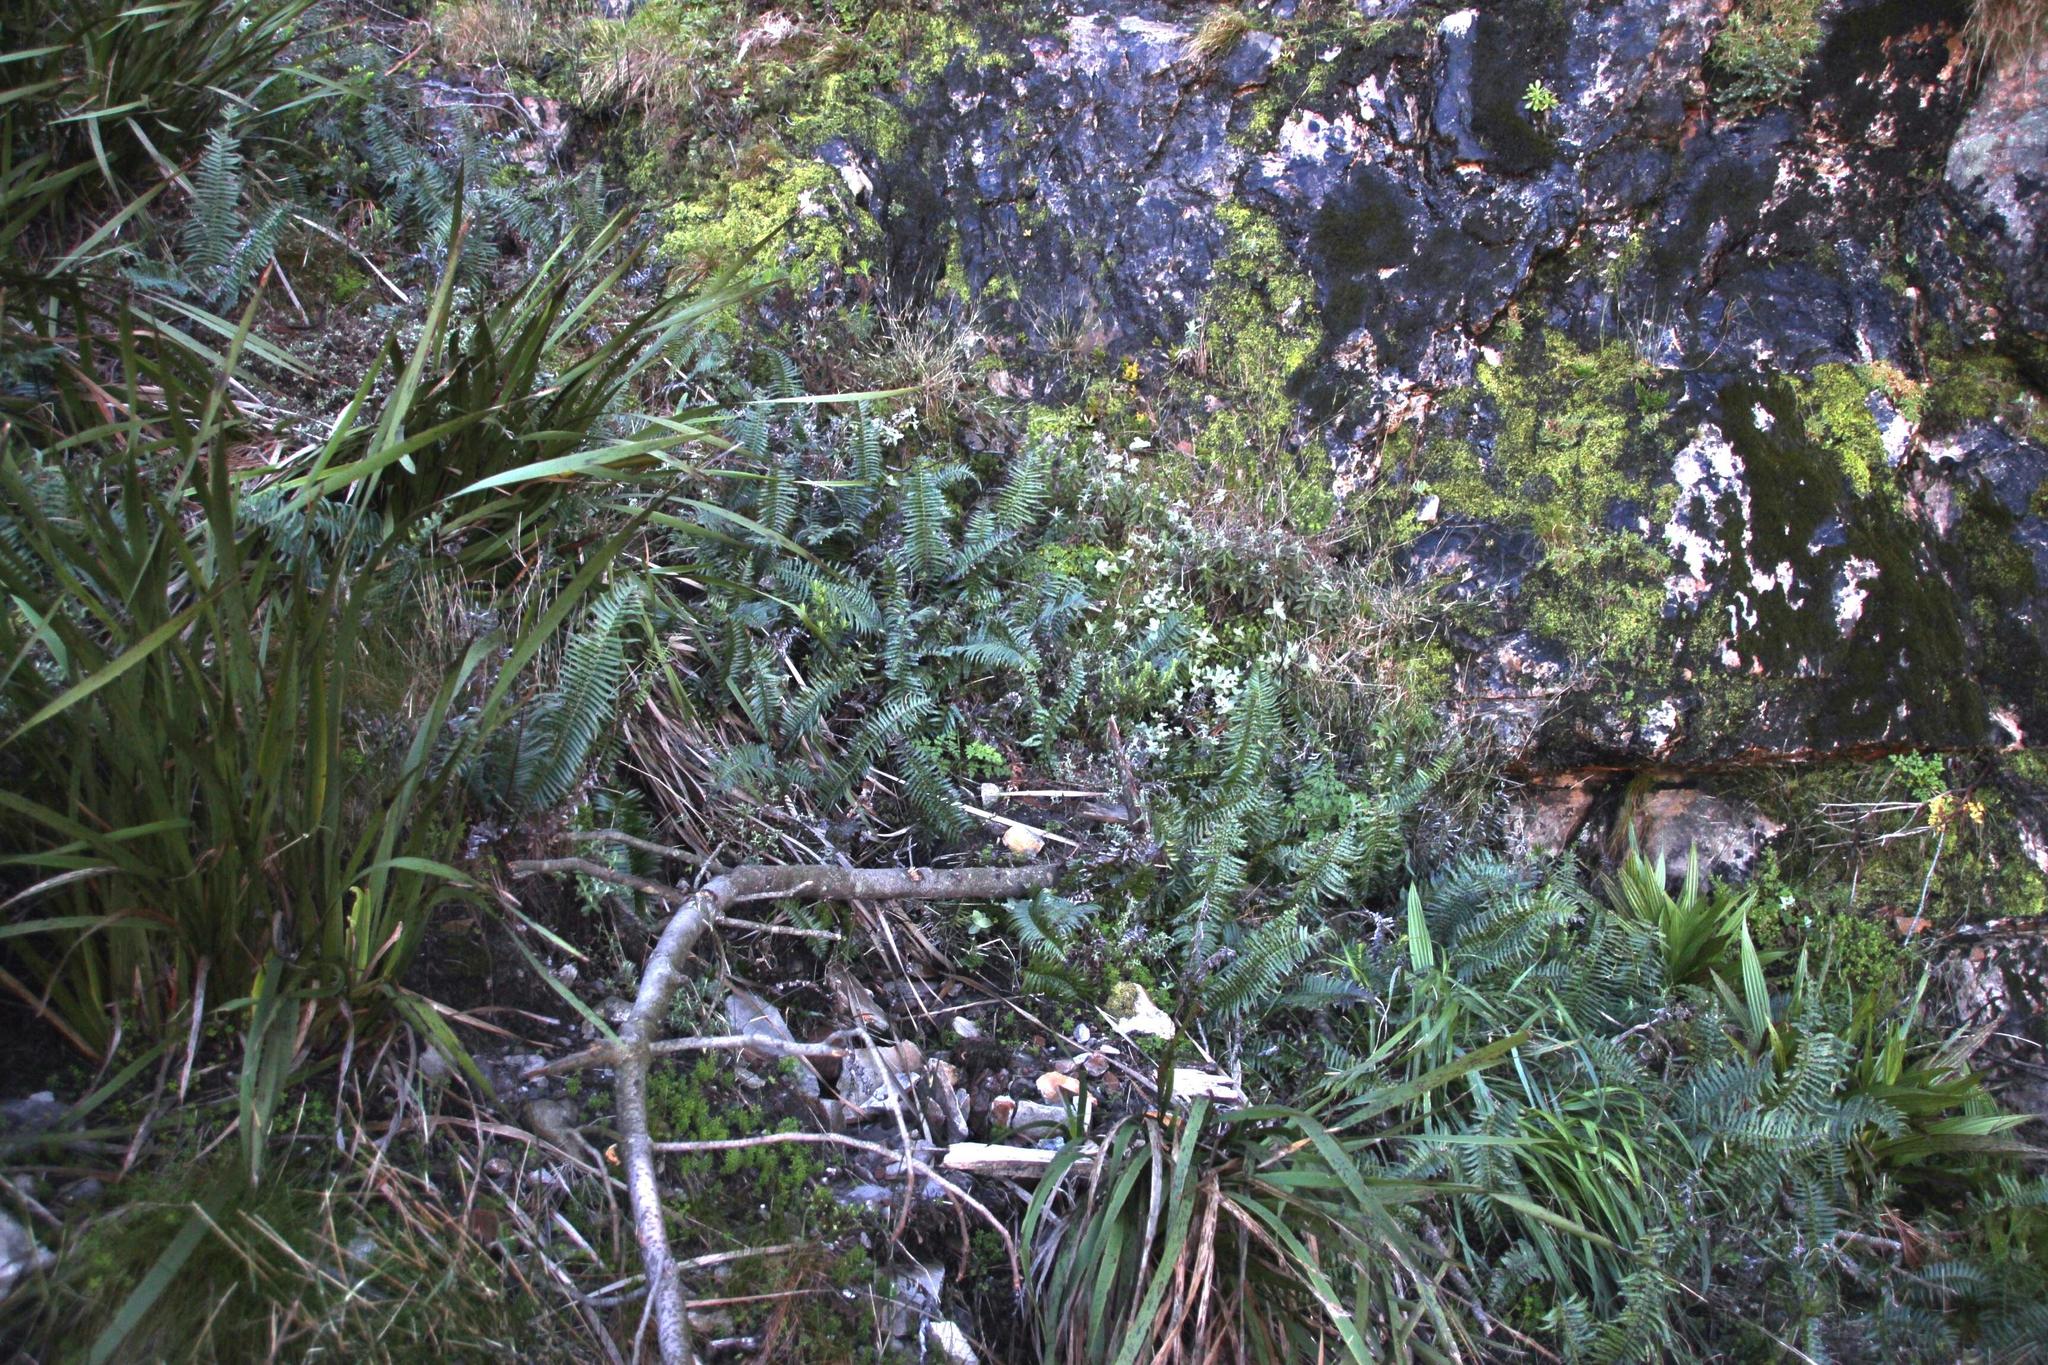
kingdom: Plantae
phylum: Tracheophyta
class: Polypodiopsida
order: Polypodiales
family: Blechnaceae
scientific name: Blechnaceae
